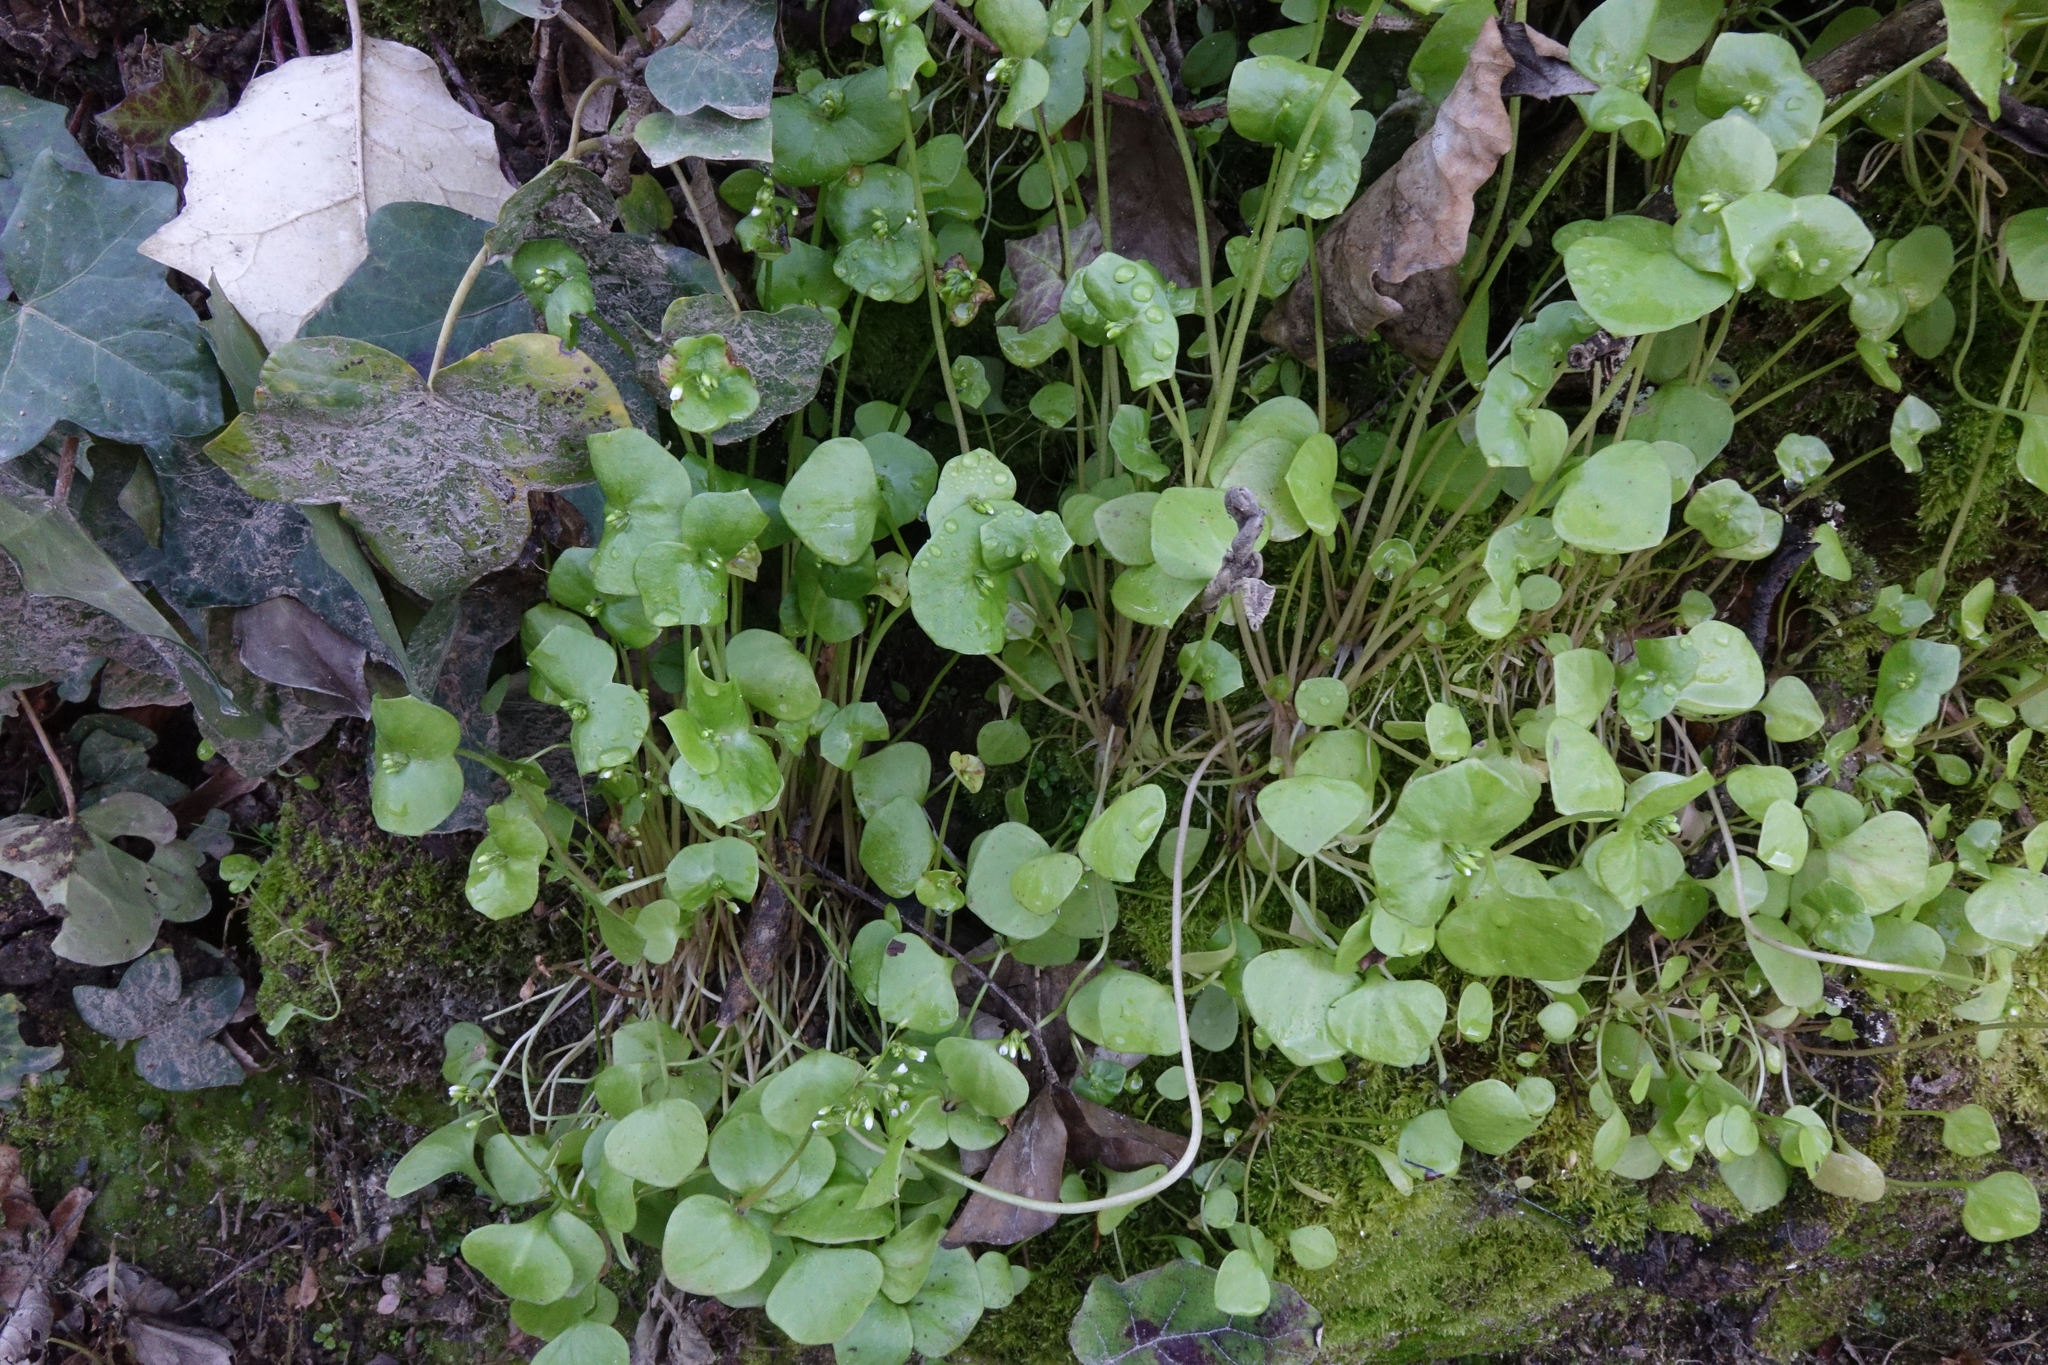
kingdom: Plantae
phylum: Tracheophyta
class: Magnoliopsida
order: Caryophyllales
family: Montiaceae
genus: Claytonia
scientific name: Claytonia perfoliata
